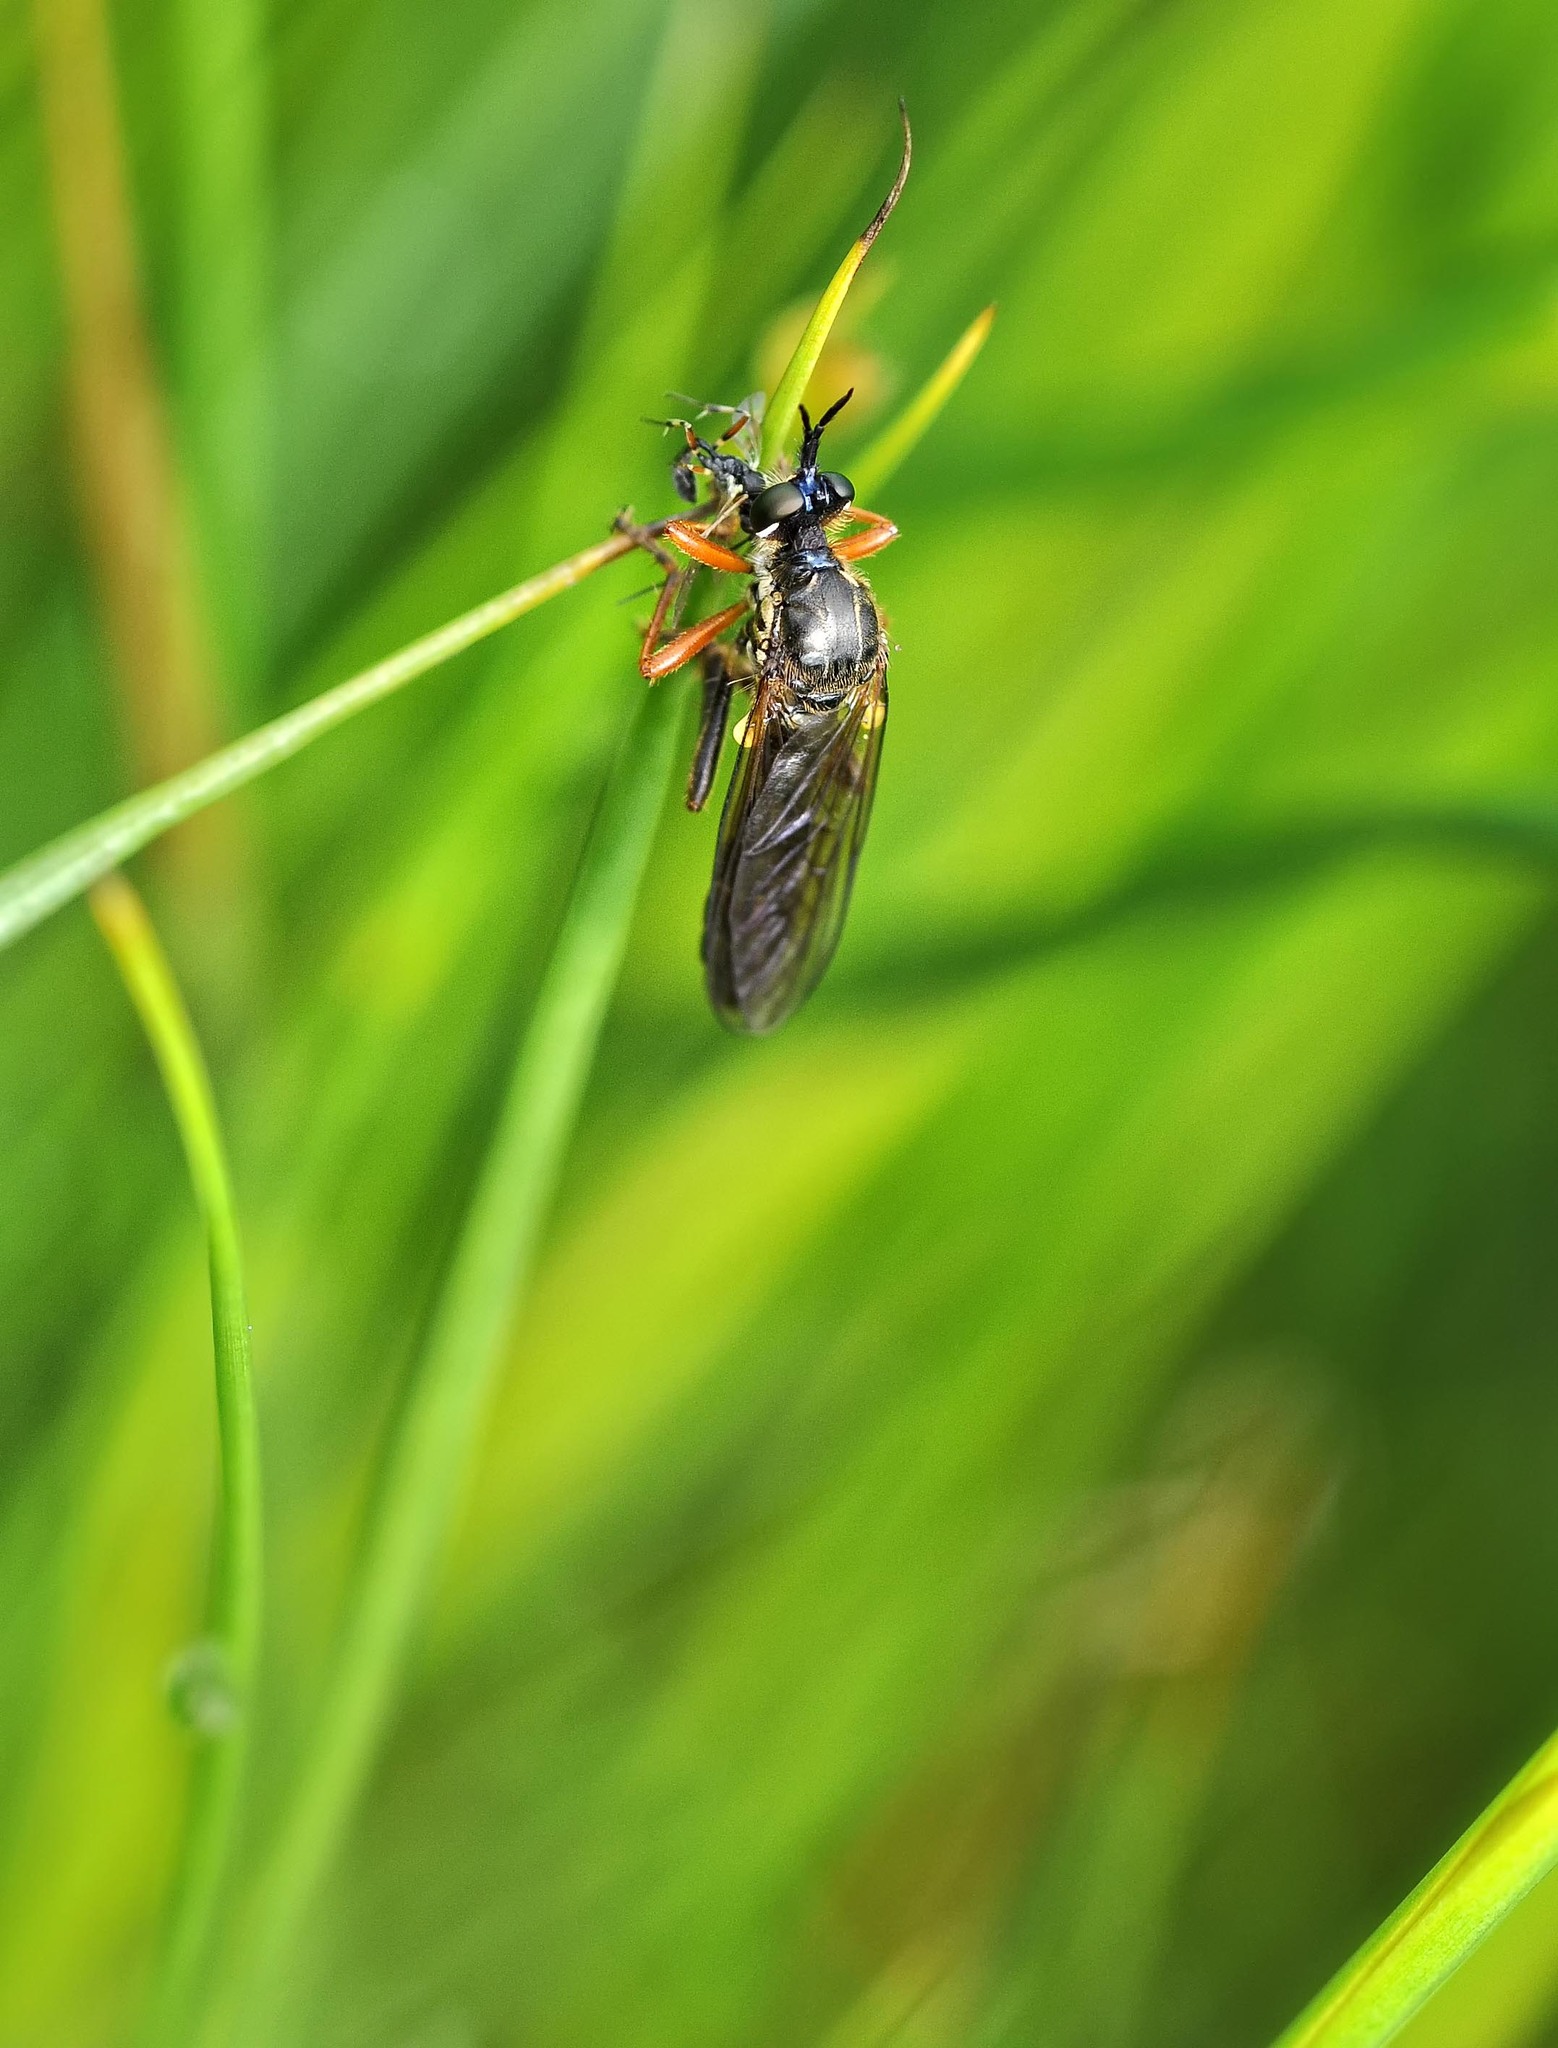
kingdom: Animalia
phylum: Arthropoda
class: Insecta
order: Diptera
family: Asilidae
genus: Dioctria
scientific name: Dioctria rufipes
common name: Common red-legged robberfly
